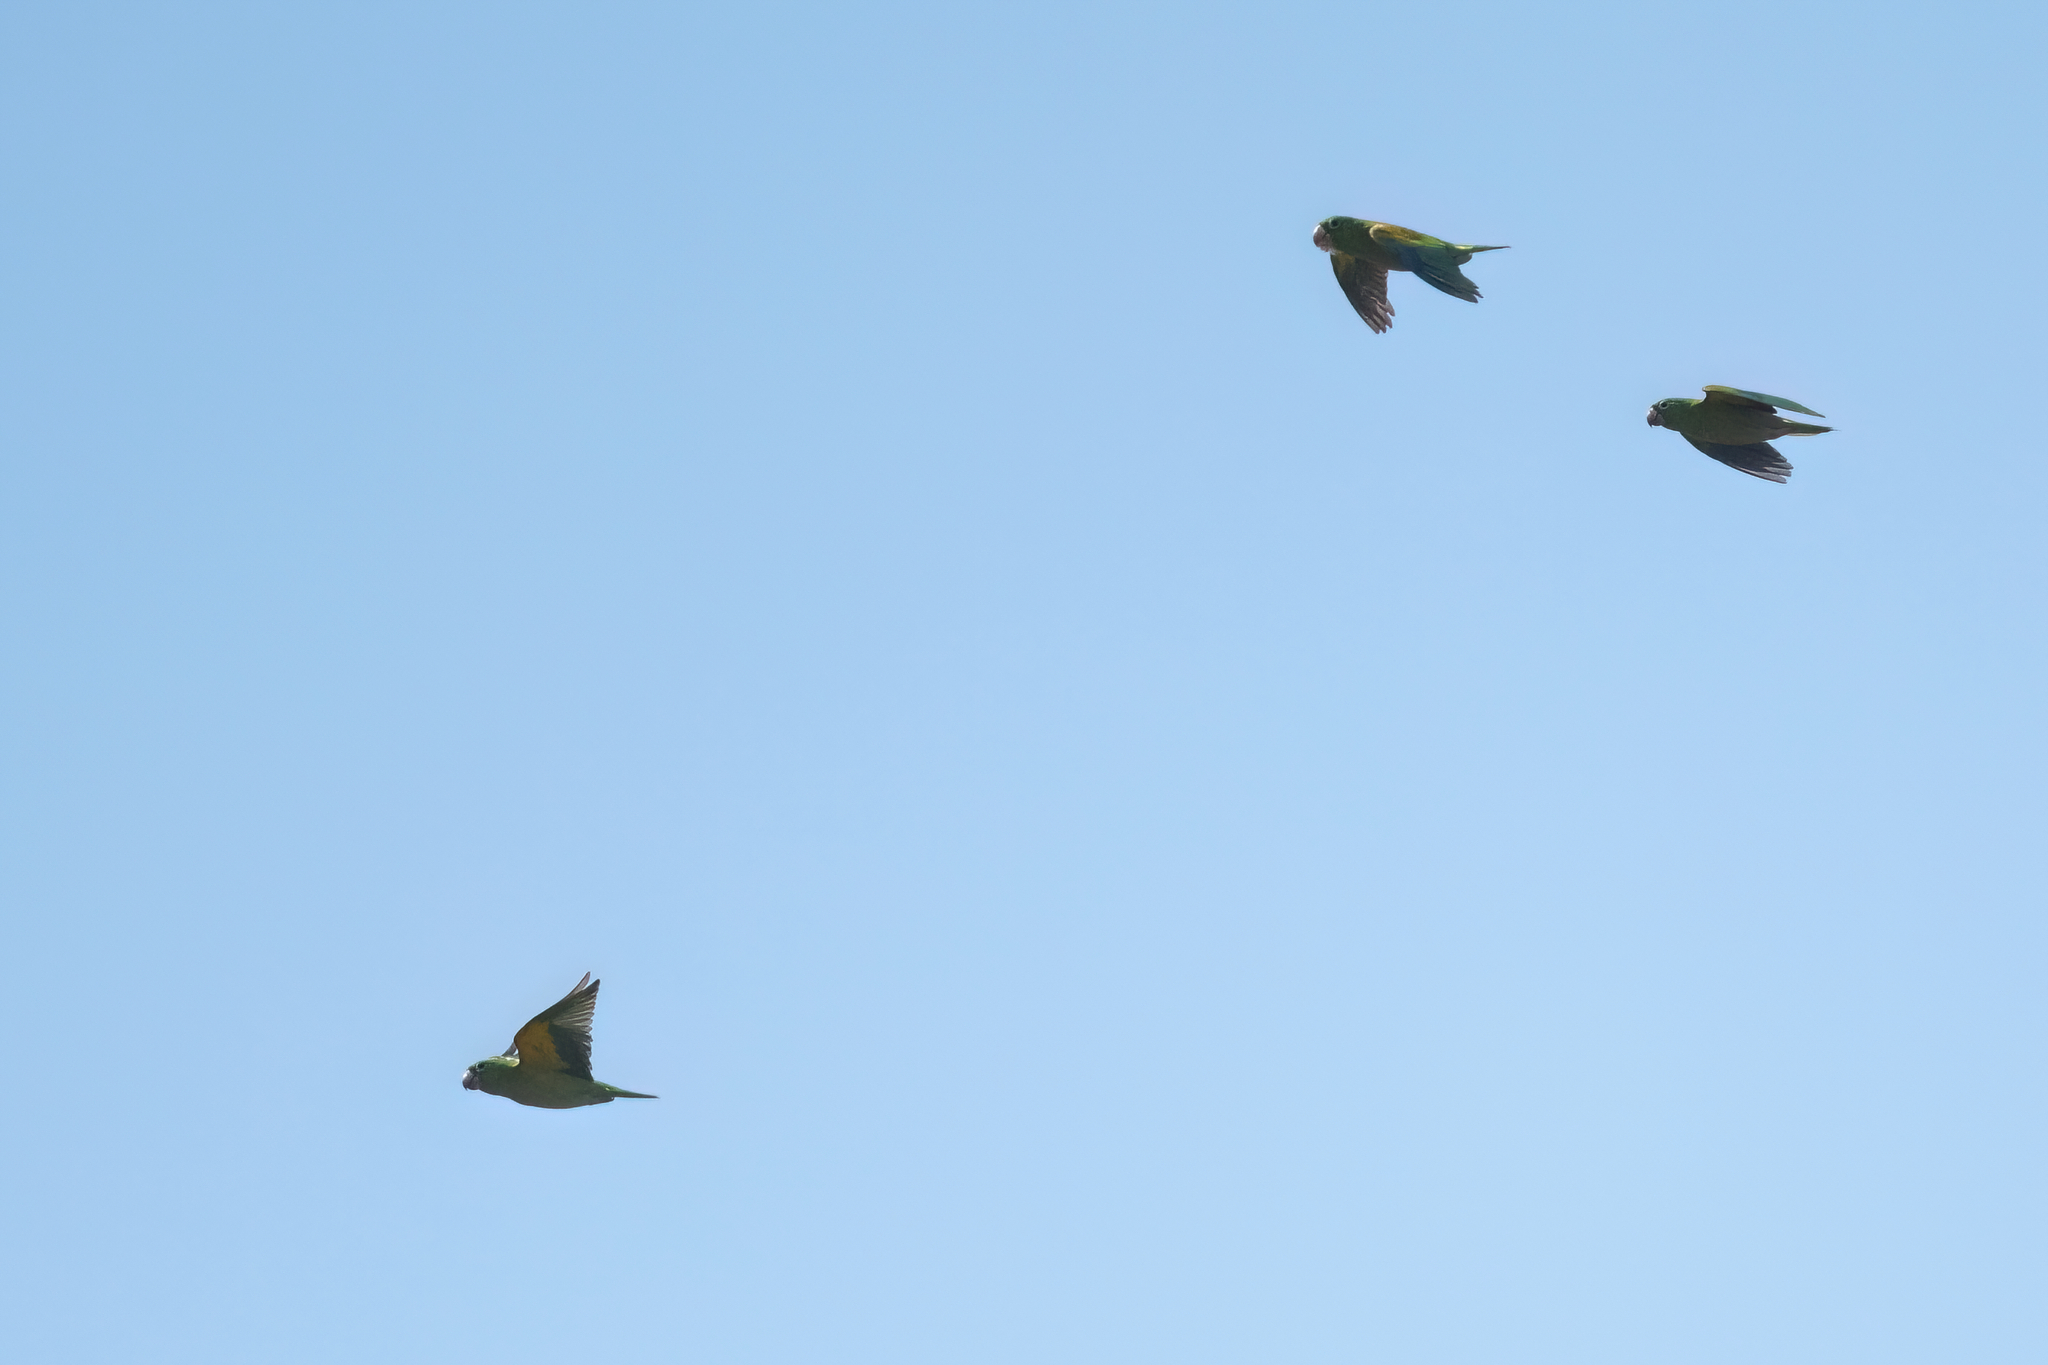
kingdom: Animalia
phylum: Chordata
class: Aves
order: Psittaciformes
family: Psittacidae
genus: Brotogeris
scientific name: Brotogeris jugularis
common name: Orange-chinned parakeet
